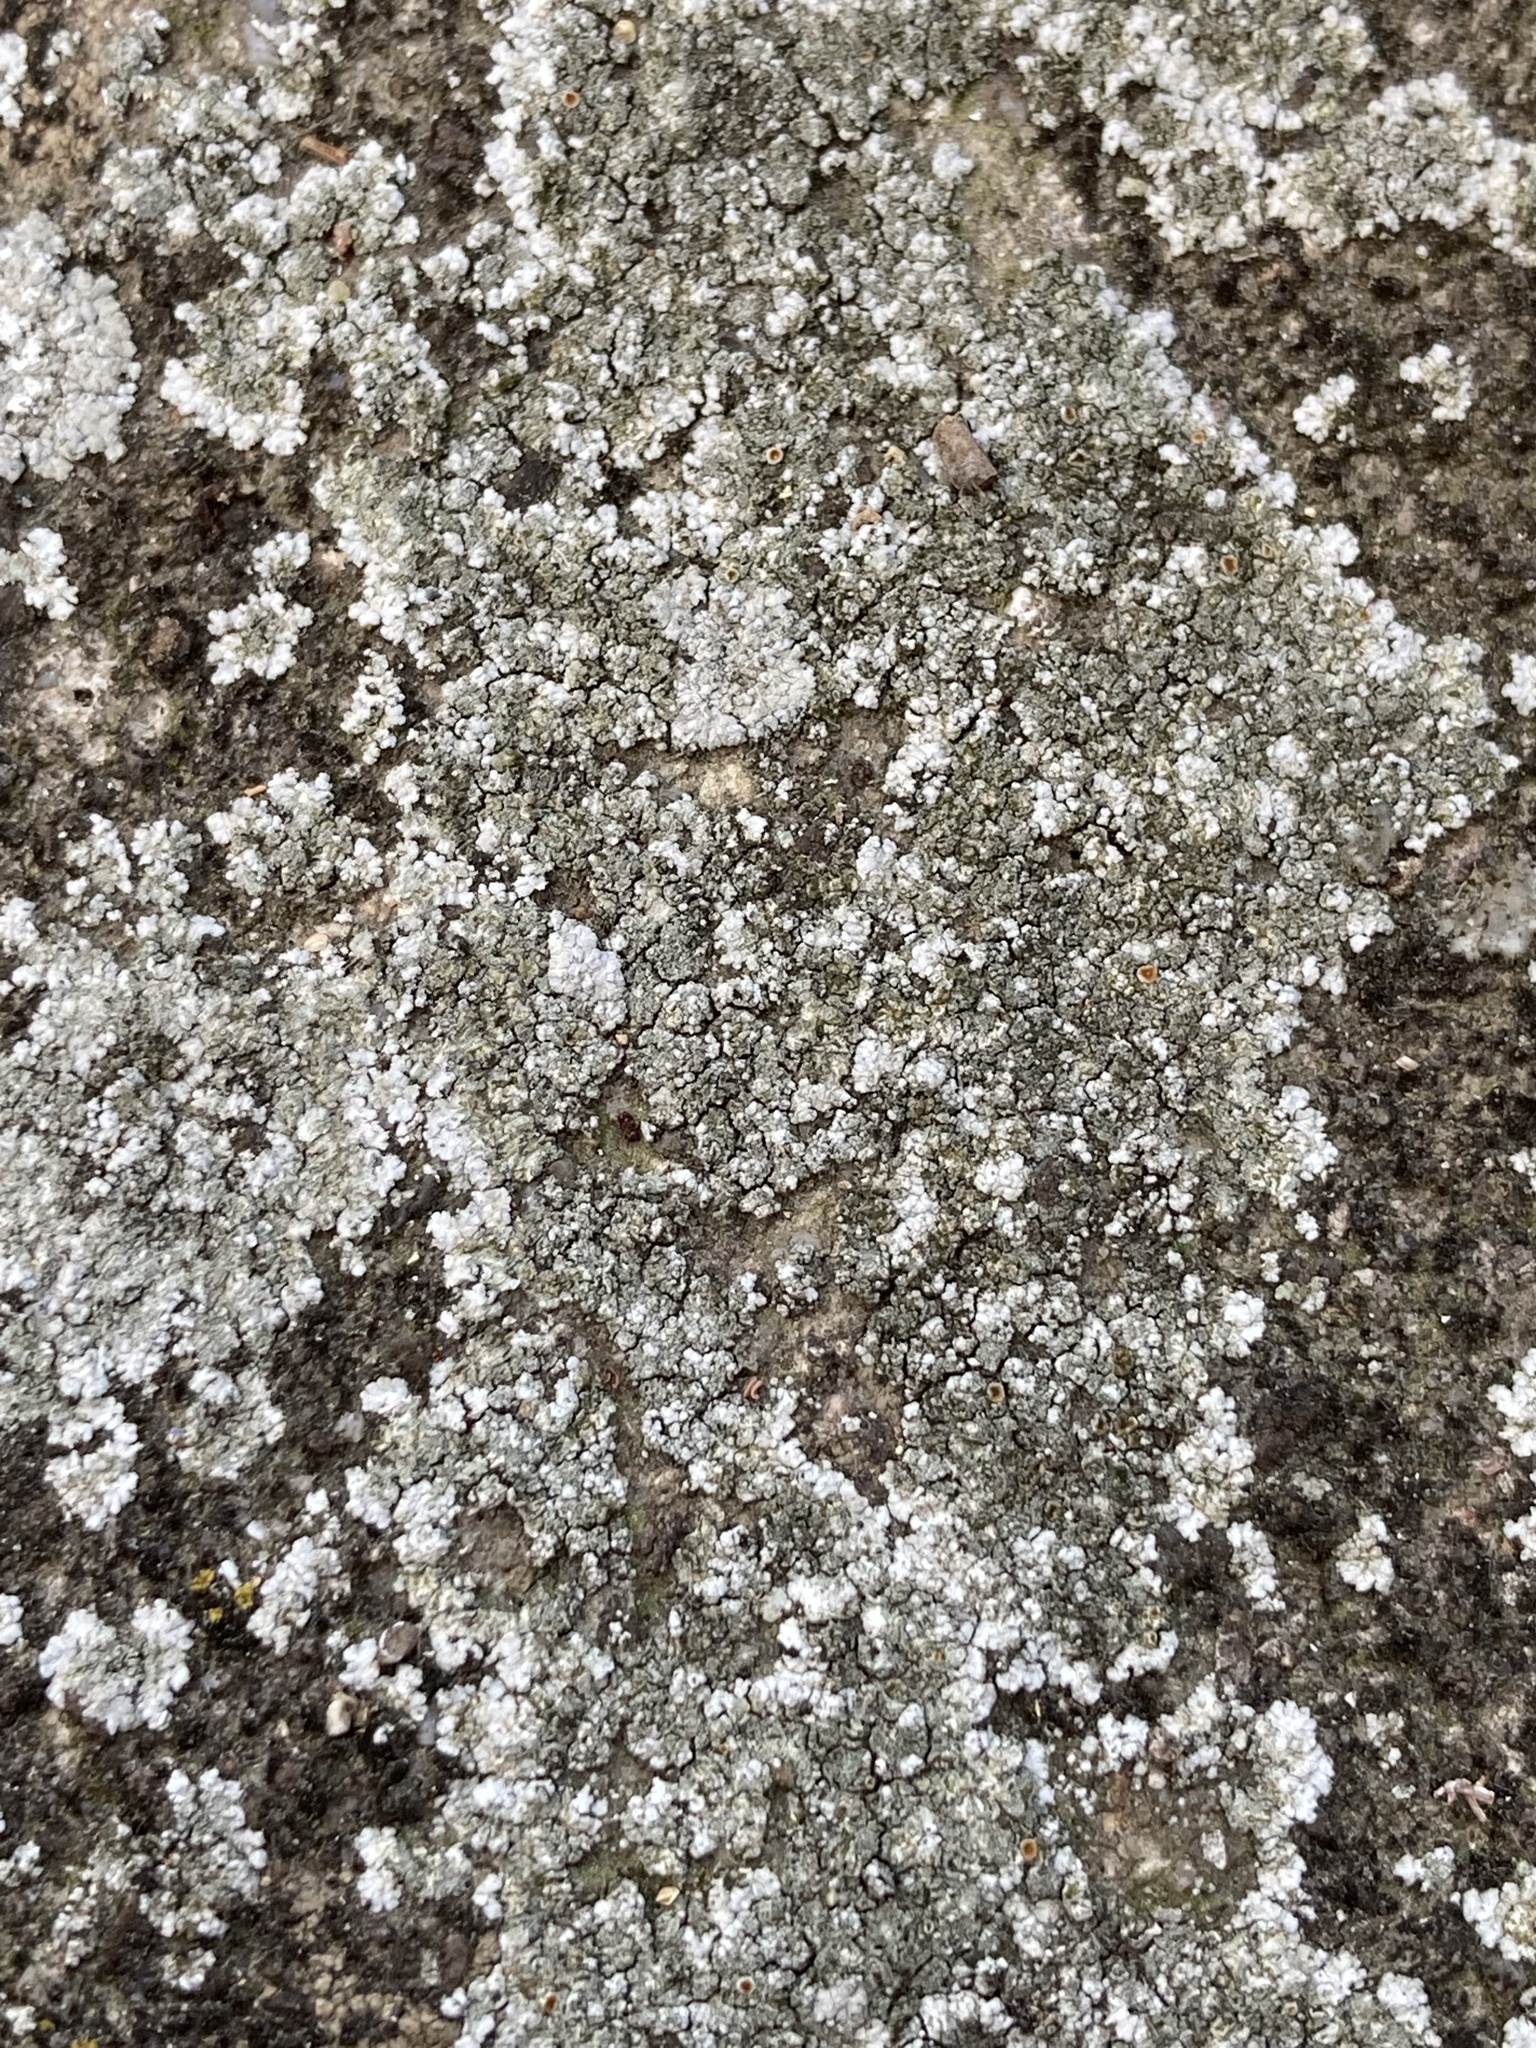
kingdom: Fungi
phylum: Ascomycota
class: Lecanoromycetes
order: Teloschistales
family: Teloschistaceae
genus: Kuettlingeria
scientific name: Kuettlingeria teicholyta
